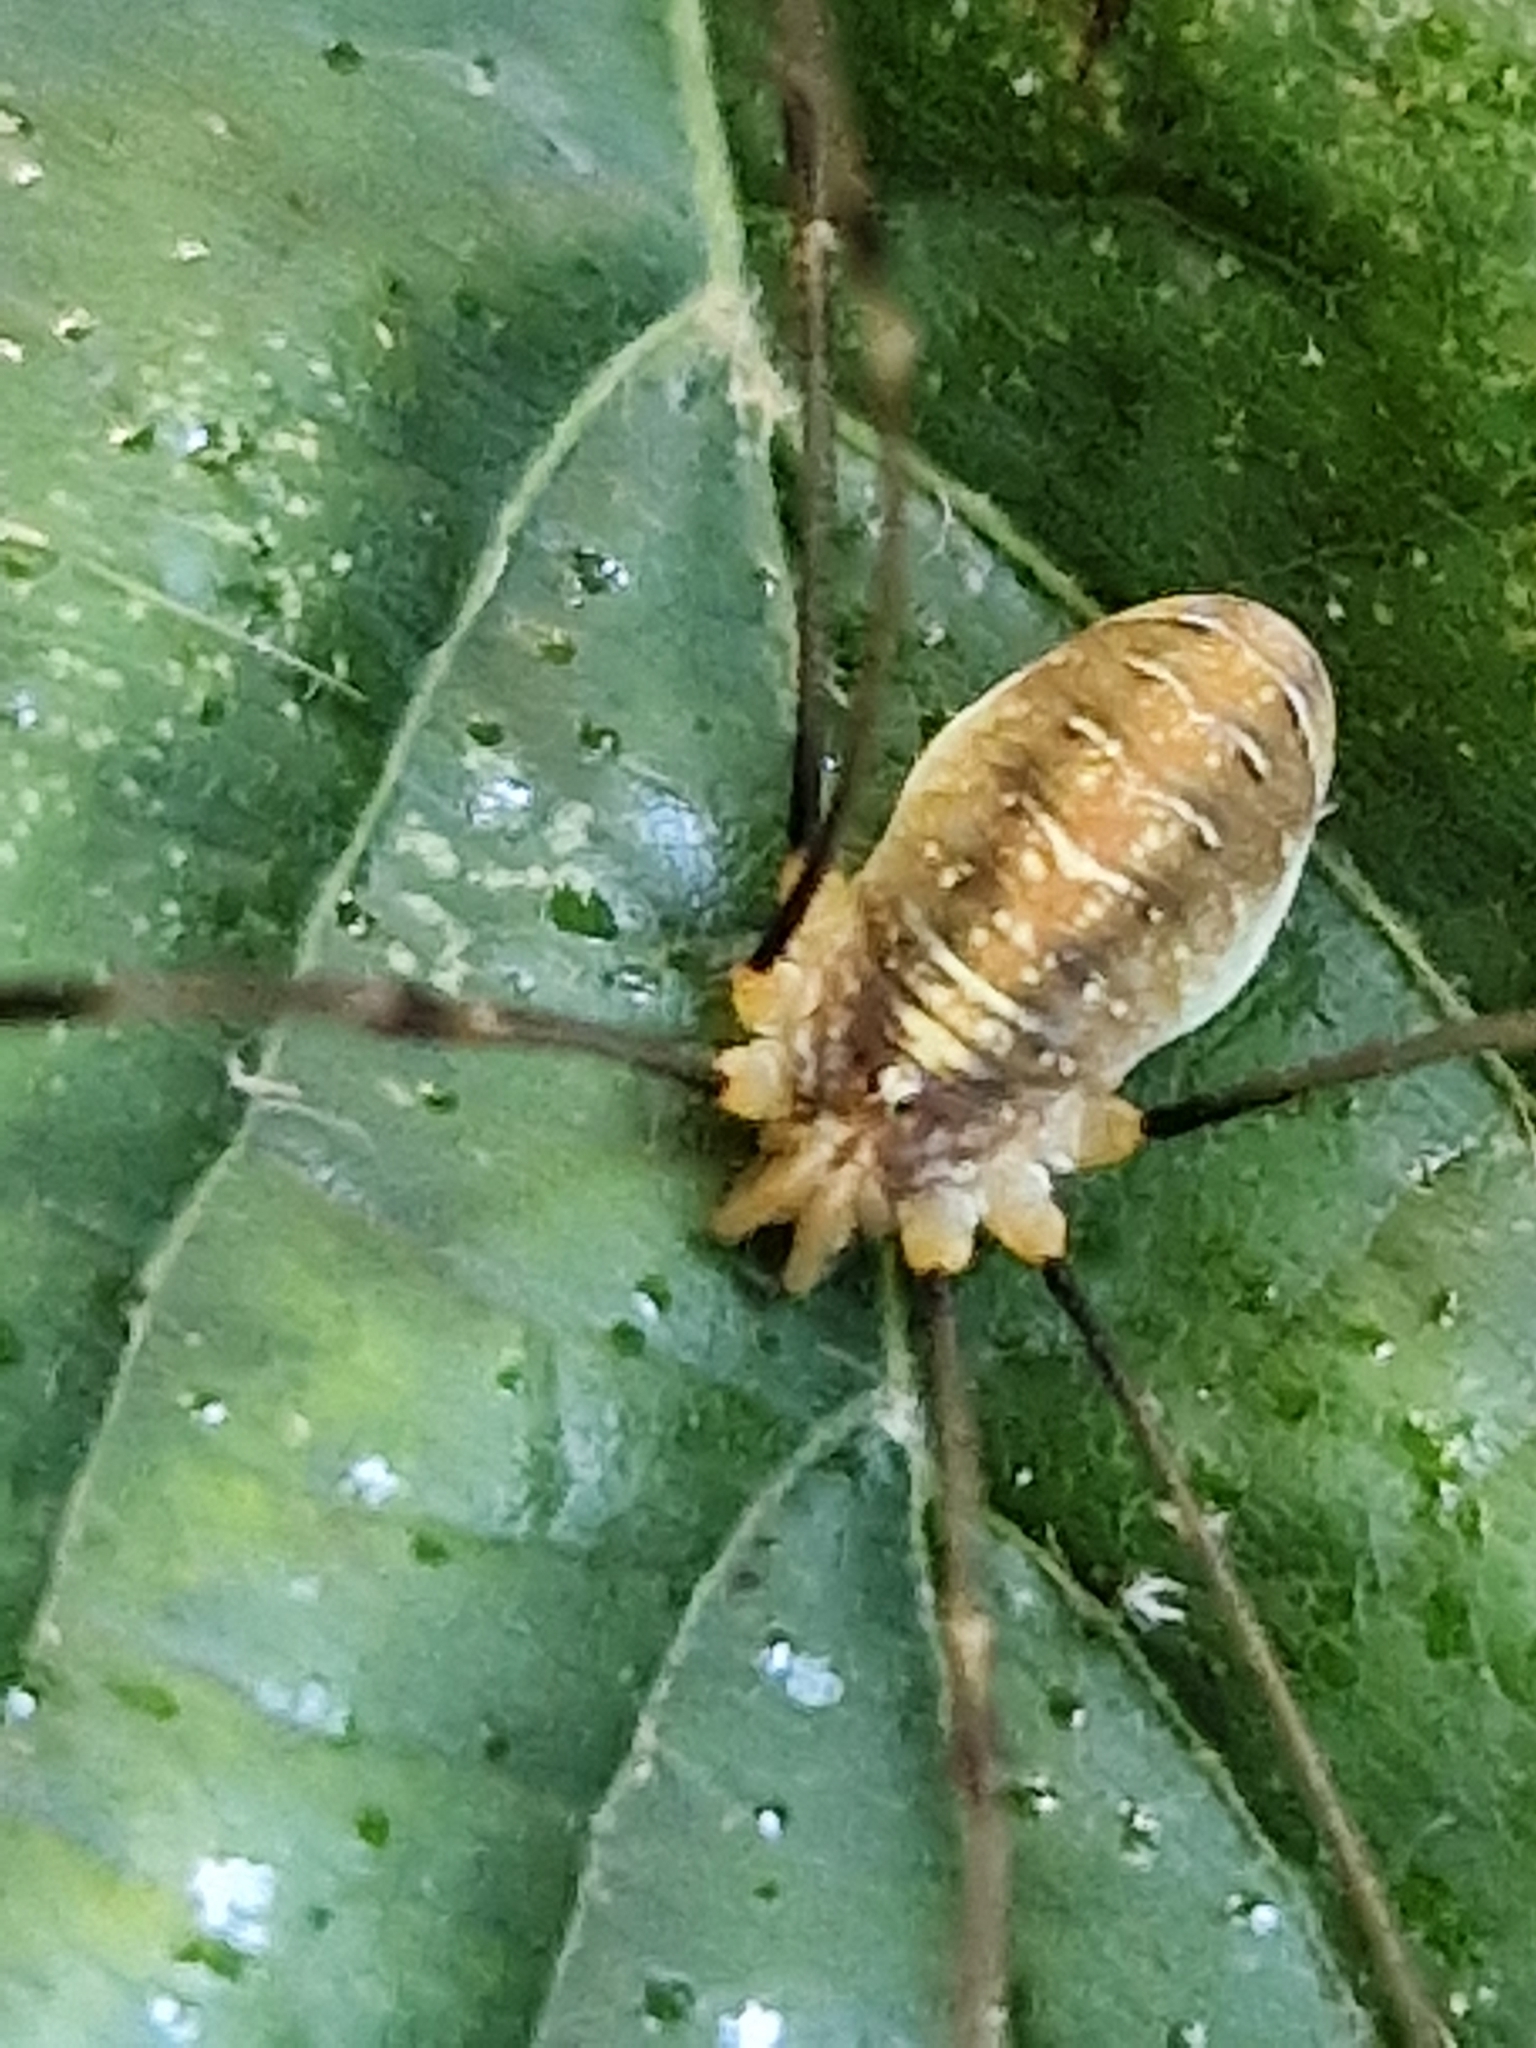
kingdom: Animalia
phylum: Arthropoda
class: Arachnida
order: Opiliones
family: Phalangiidae
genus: Opilio
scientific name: Opilio canestrinii
